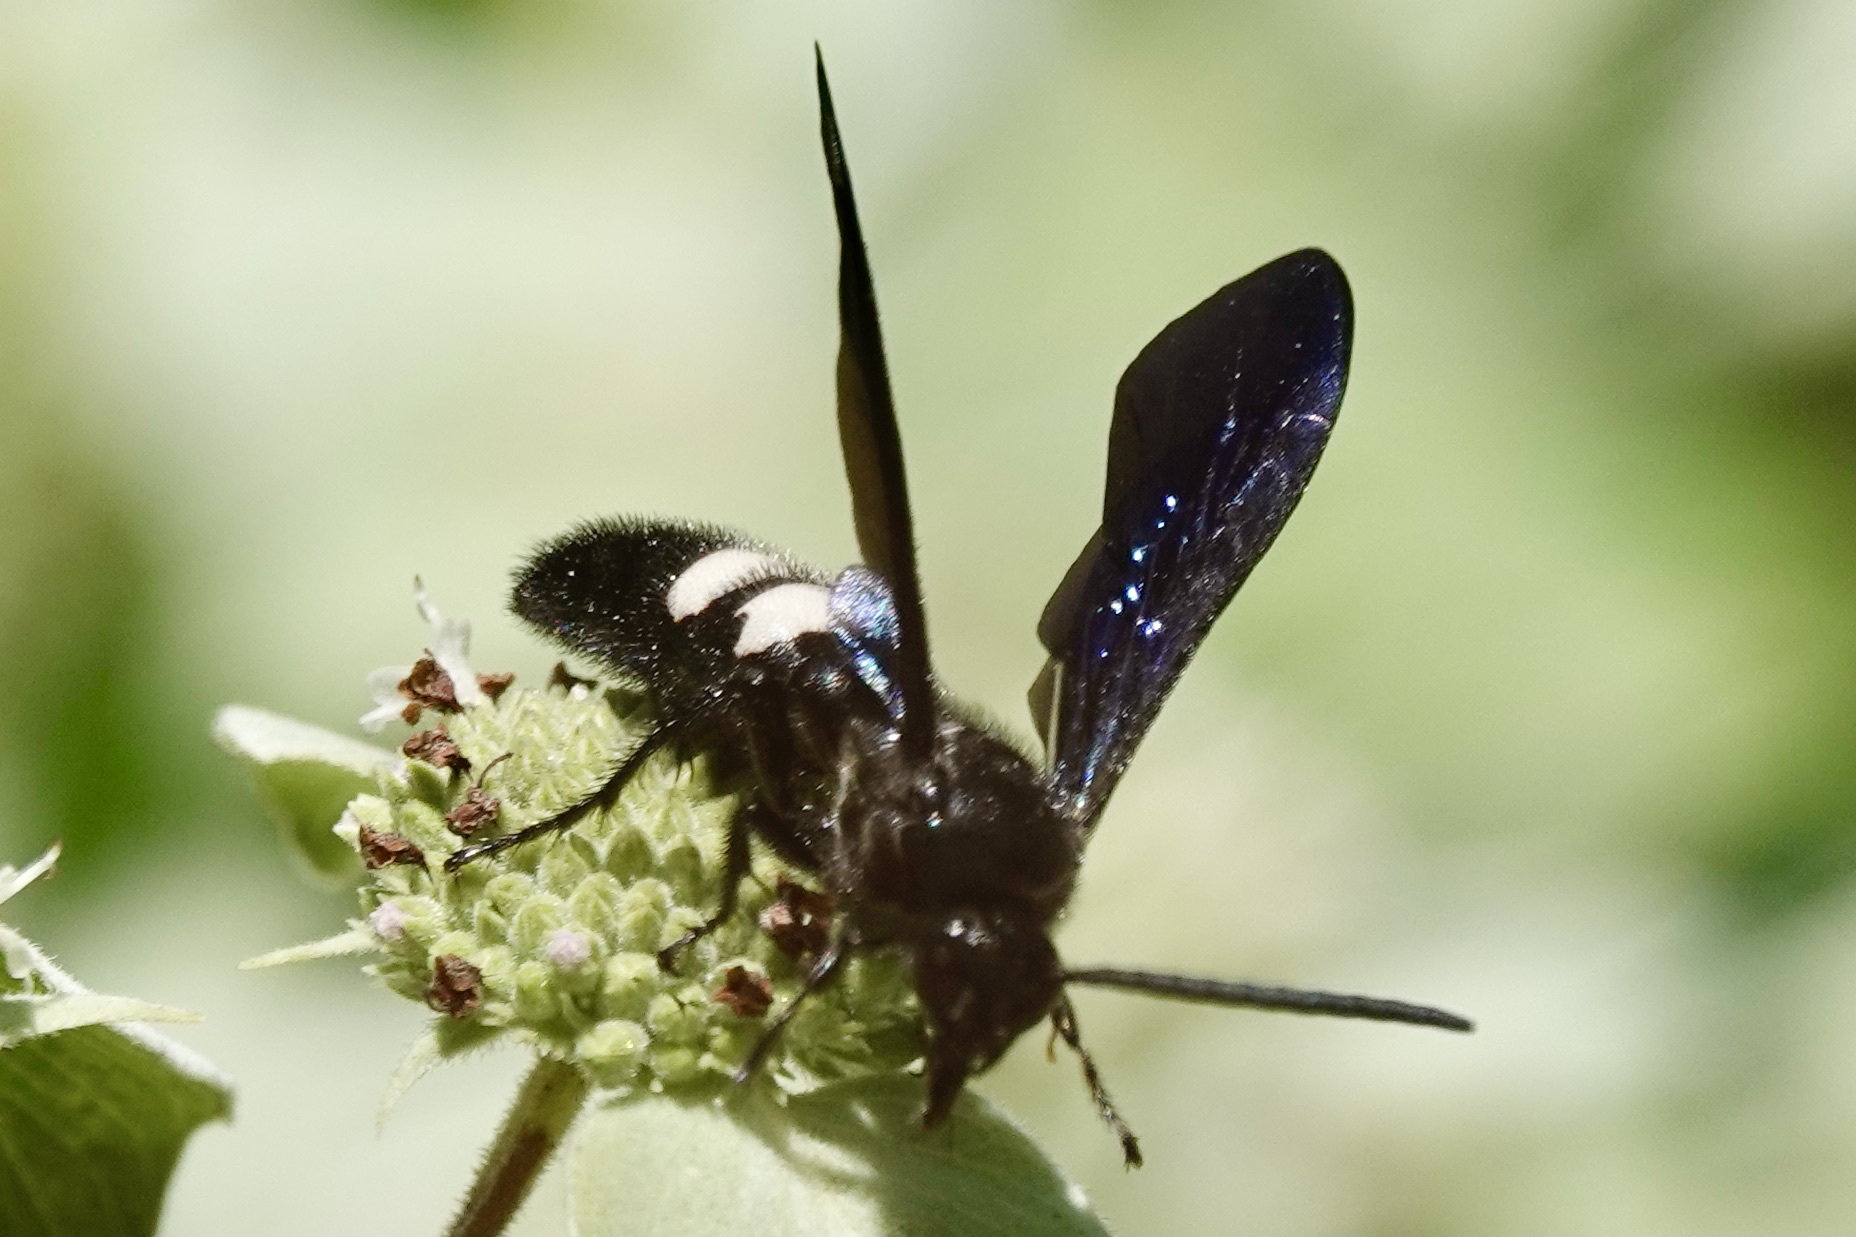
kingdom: Animalia
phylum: Arthropoda
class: Insecta
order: Hymenoptera
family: Scoliidae
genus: Scolia
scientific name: Scolia bicincta
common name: Double-banded scoliid wasp
